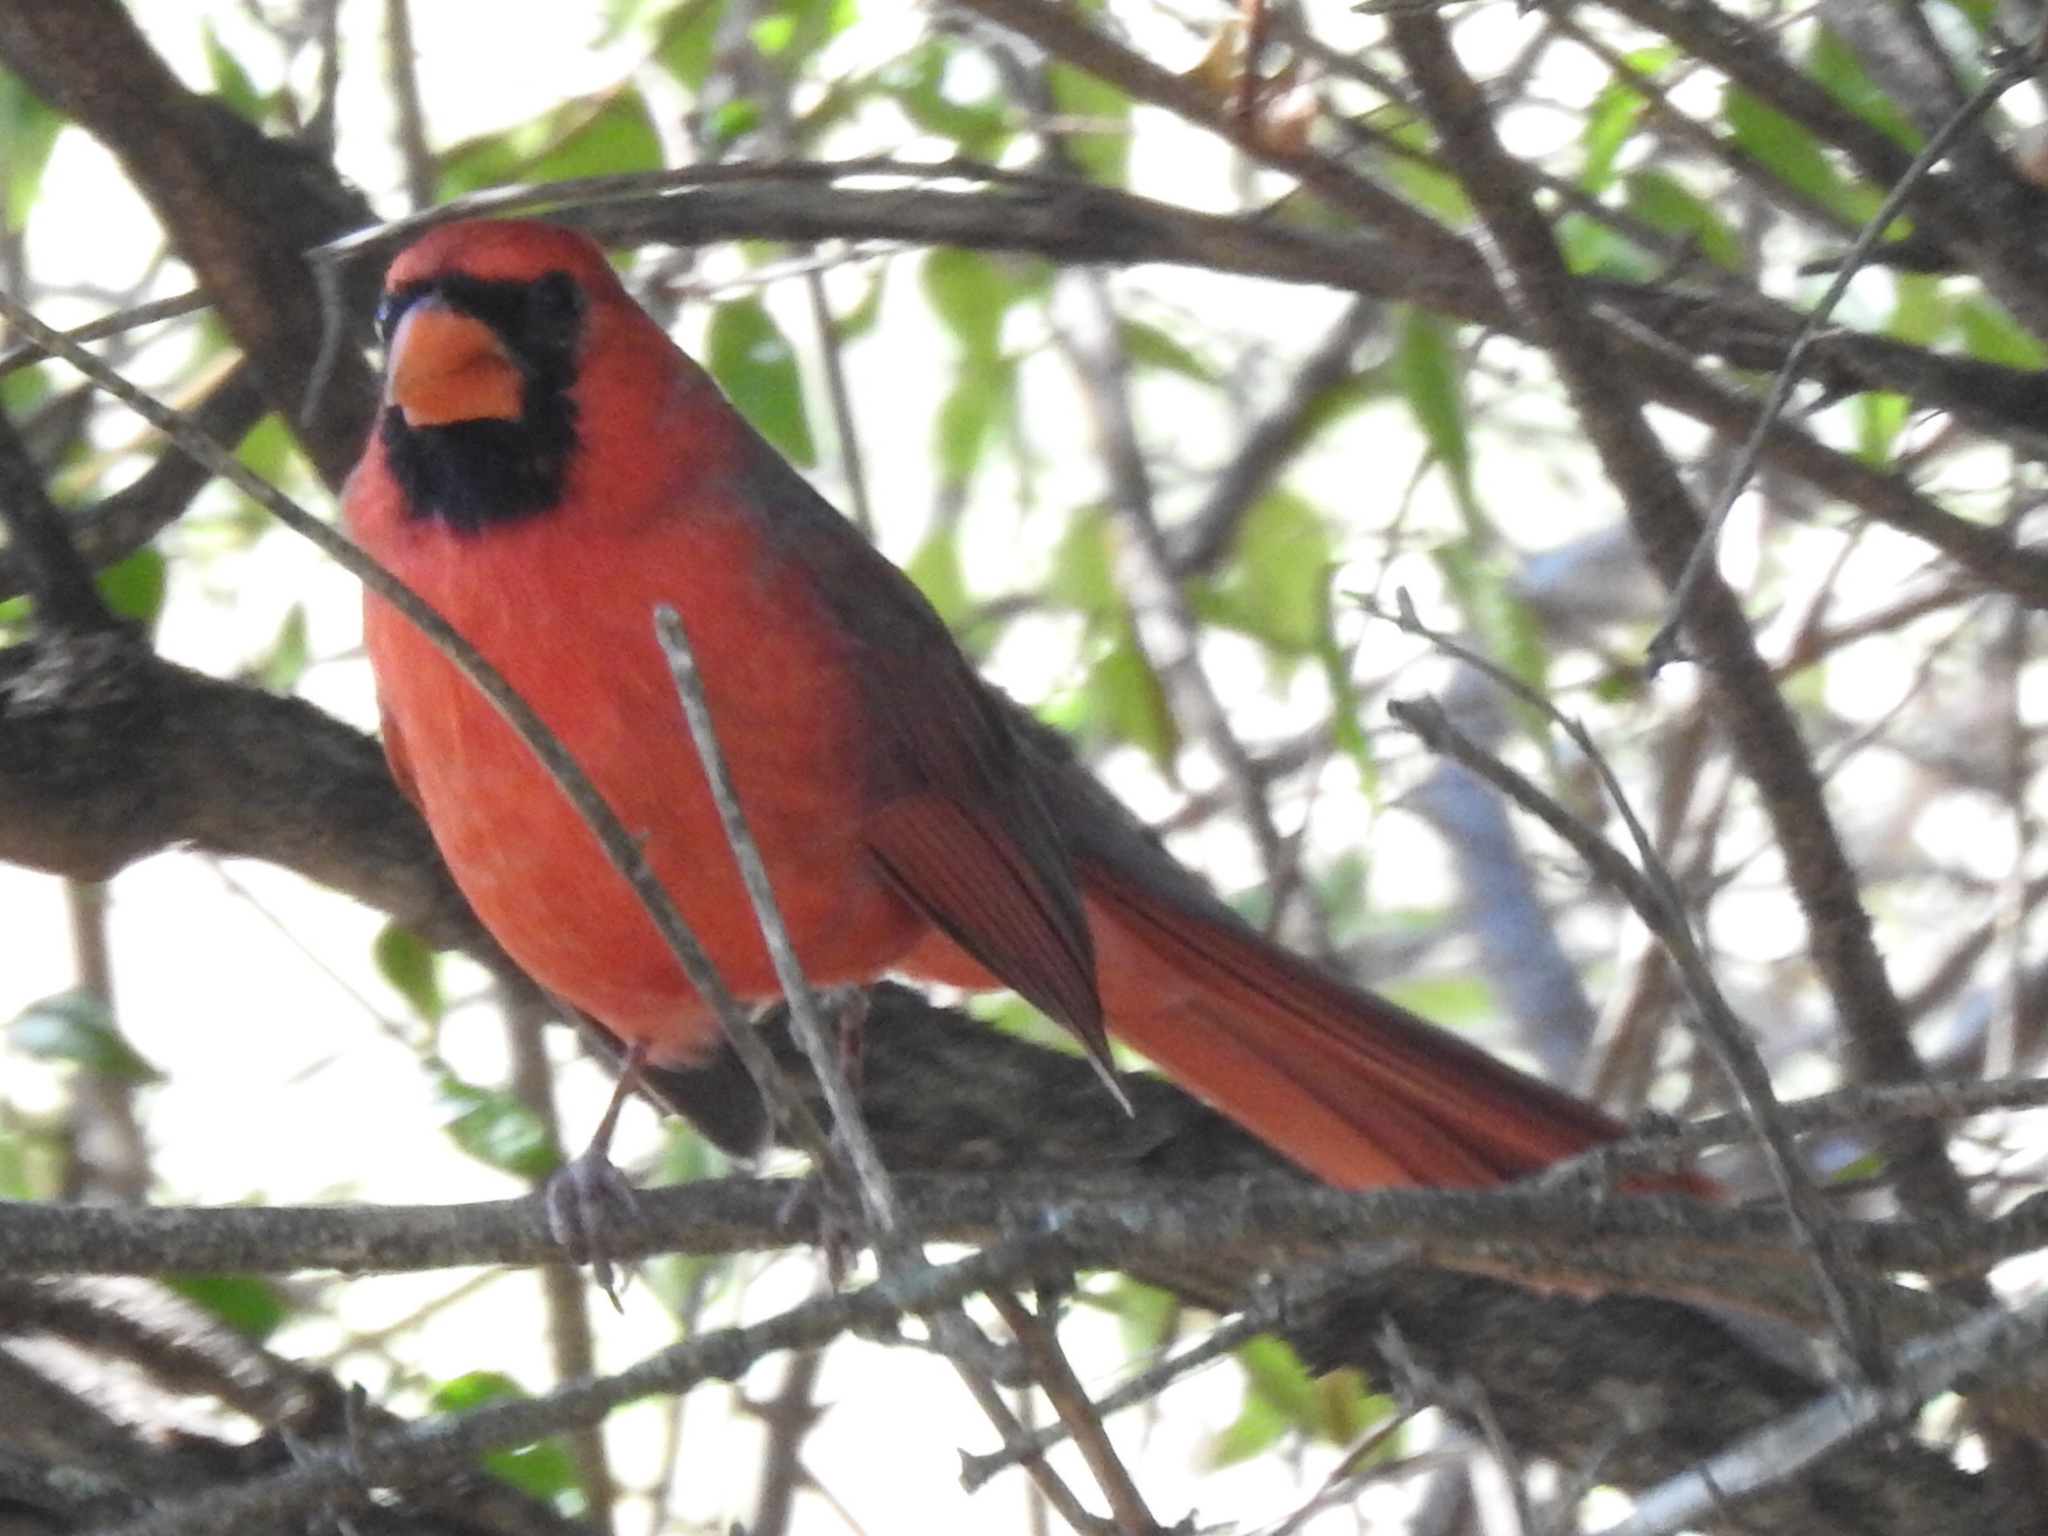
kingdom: Animalia
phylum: Chordata
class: Aves
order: Passeriformes
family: Cardinalidae
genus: Cardinalis
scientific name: Cardinalis cardinalis
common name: Northern cardinal
